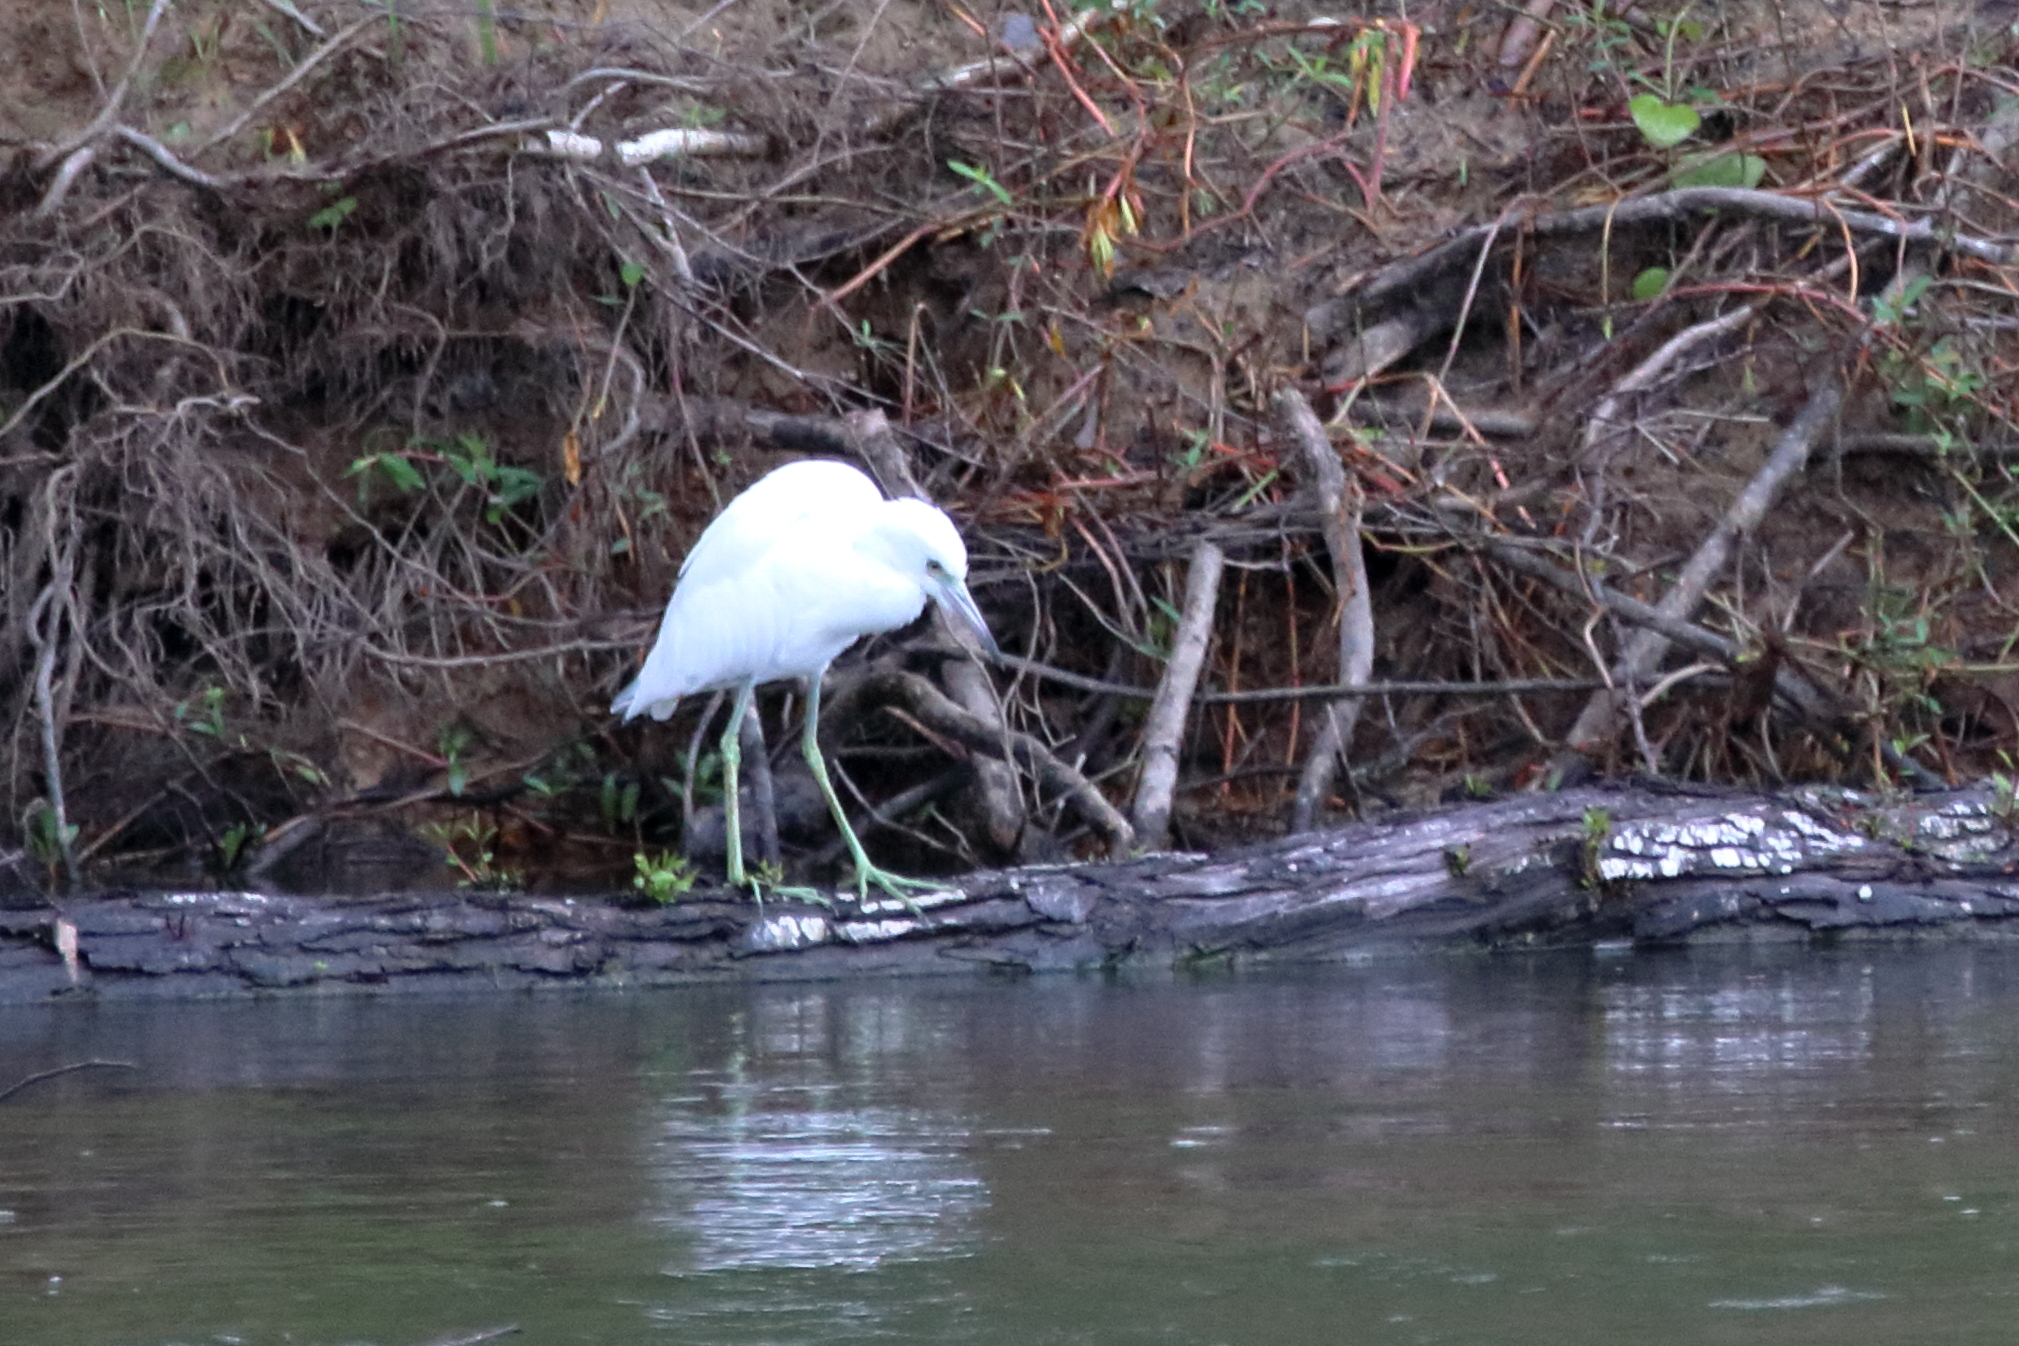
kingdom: Animalia
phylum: Chordata
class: Aves
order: Pelecaniformes
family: Ardeidae
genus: Egretta
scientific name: Egretta caerulea
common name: Little blue heron
